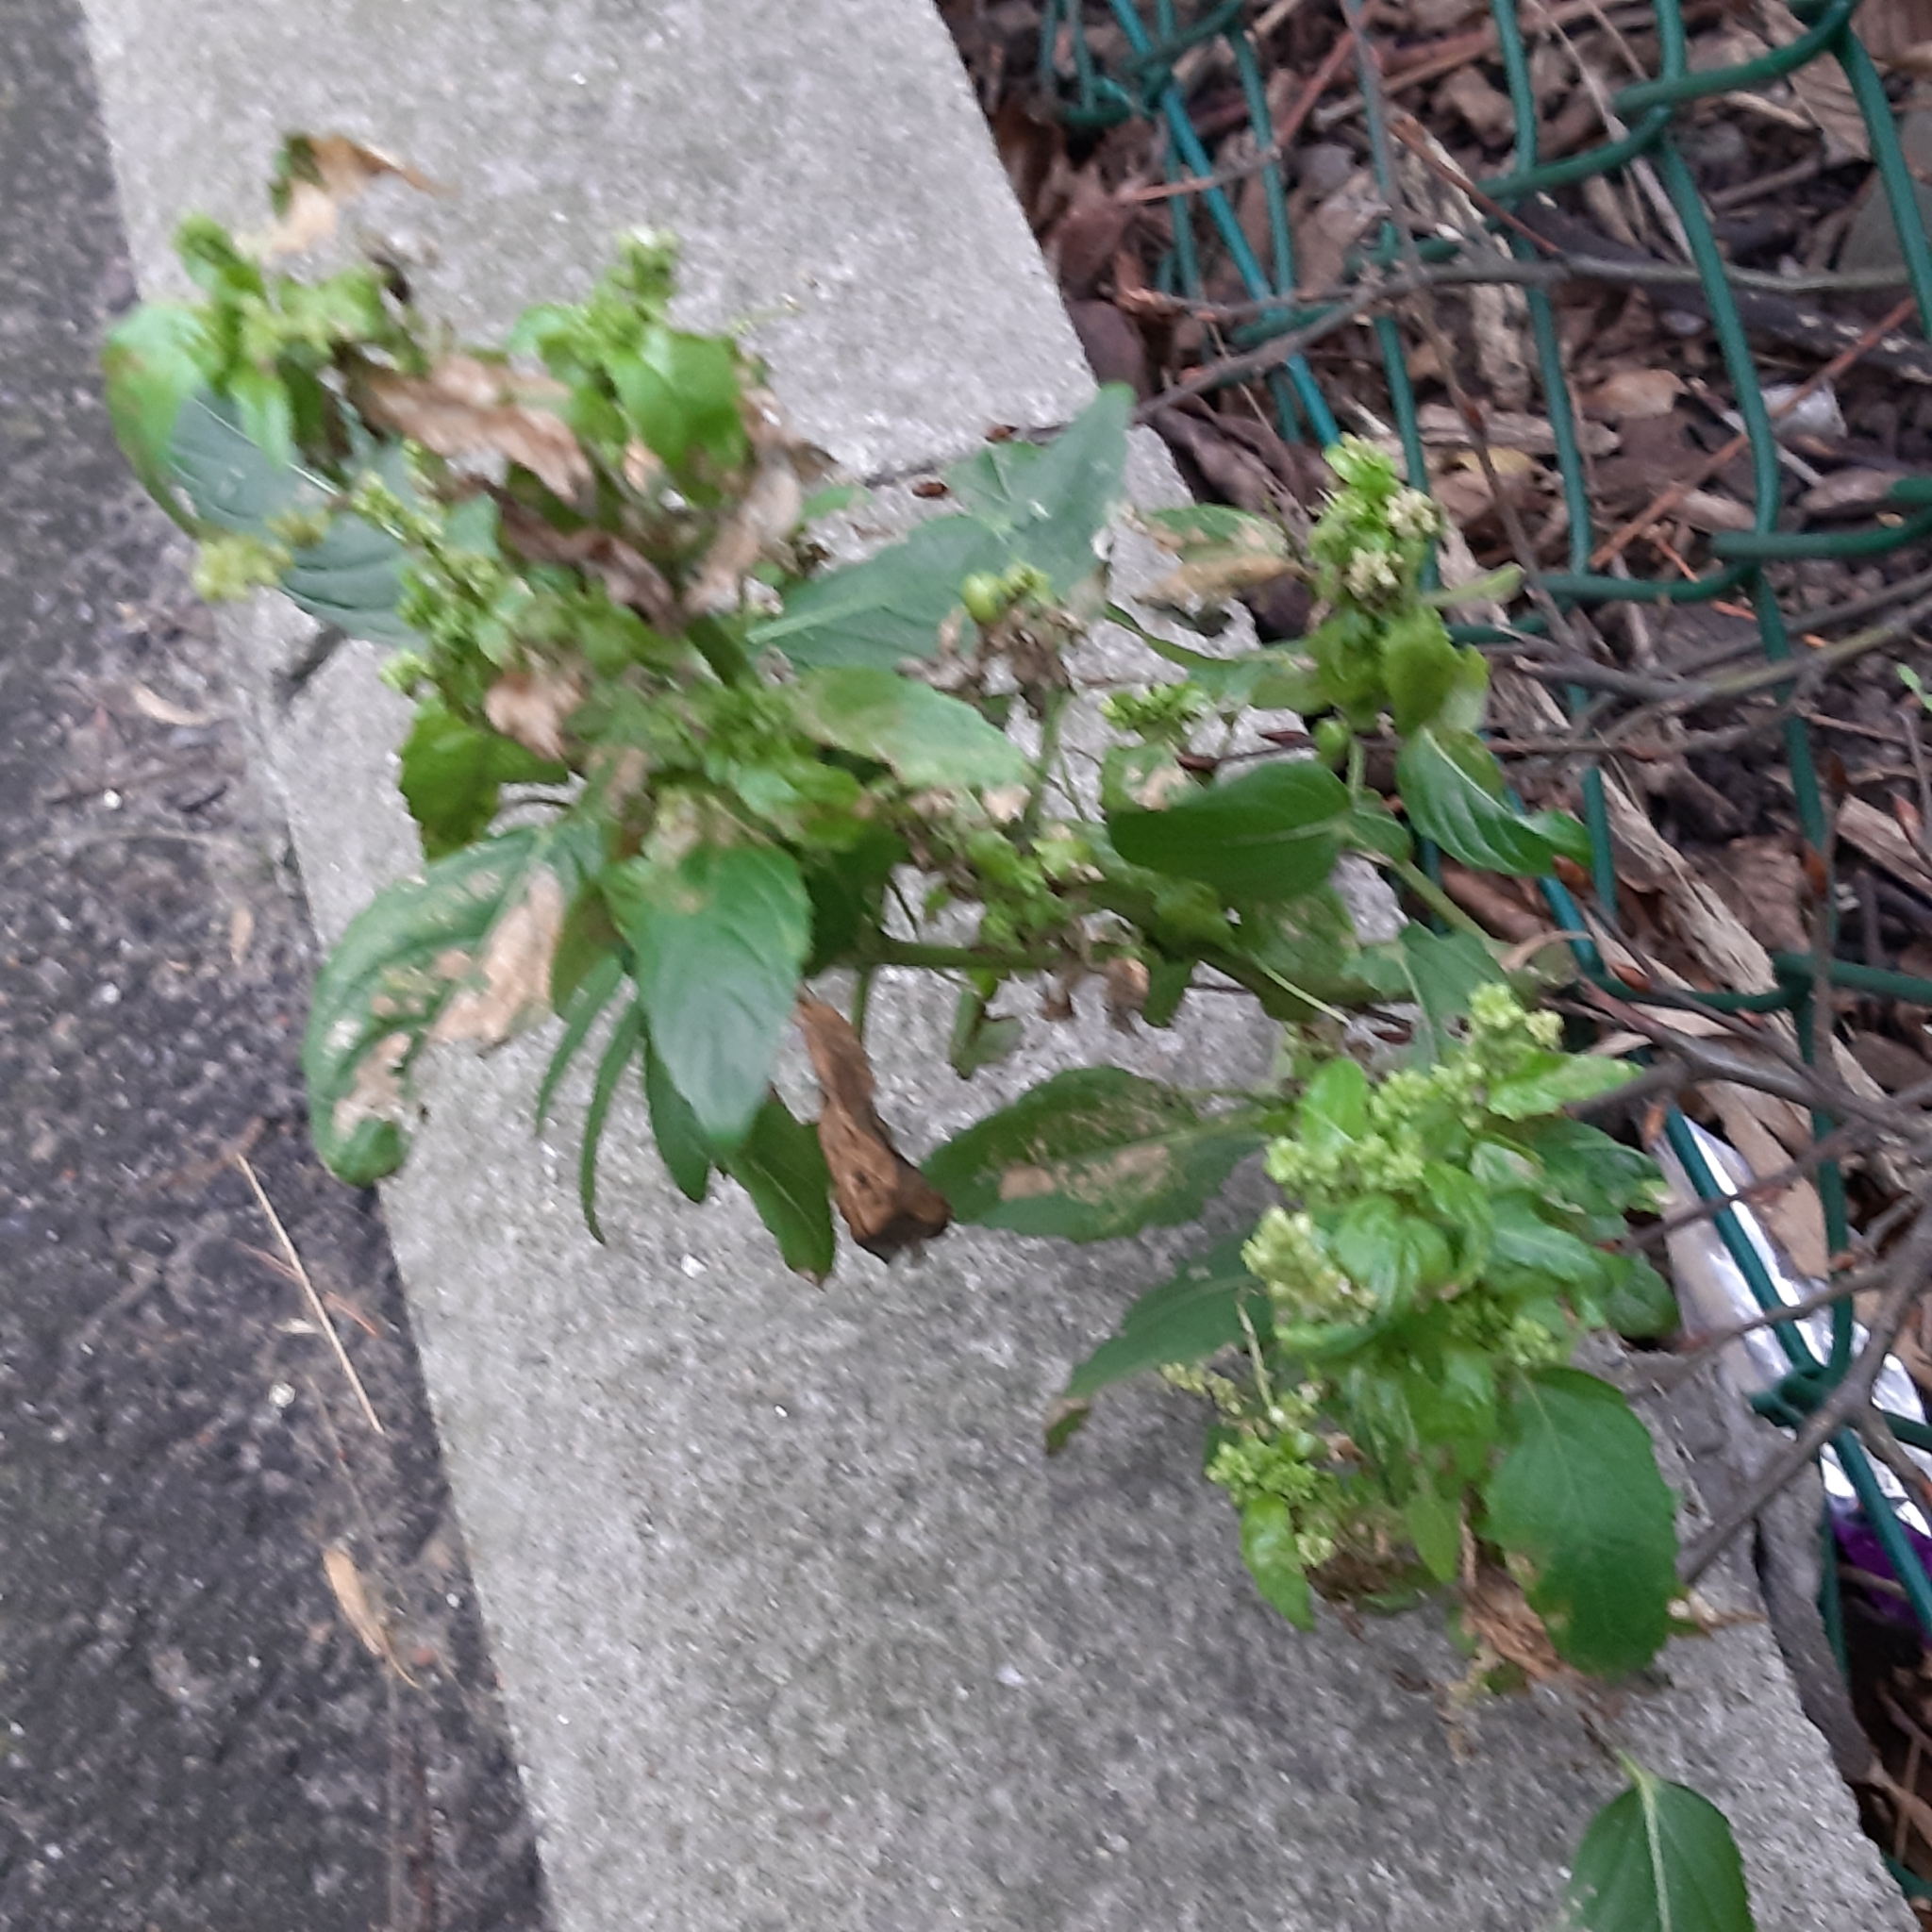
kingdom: Plantae
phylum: Tracheophyta
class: Magnoliopsida
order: Malpighiales
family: Euphorbiaceae
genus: Mercurialis
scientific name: Mercurialis annua
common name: Annual mercury
